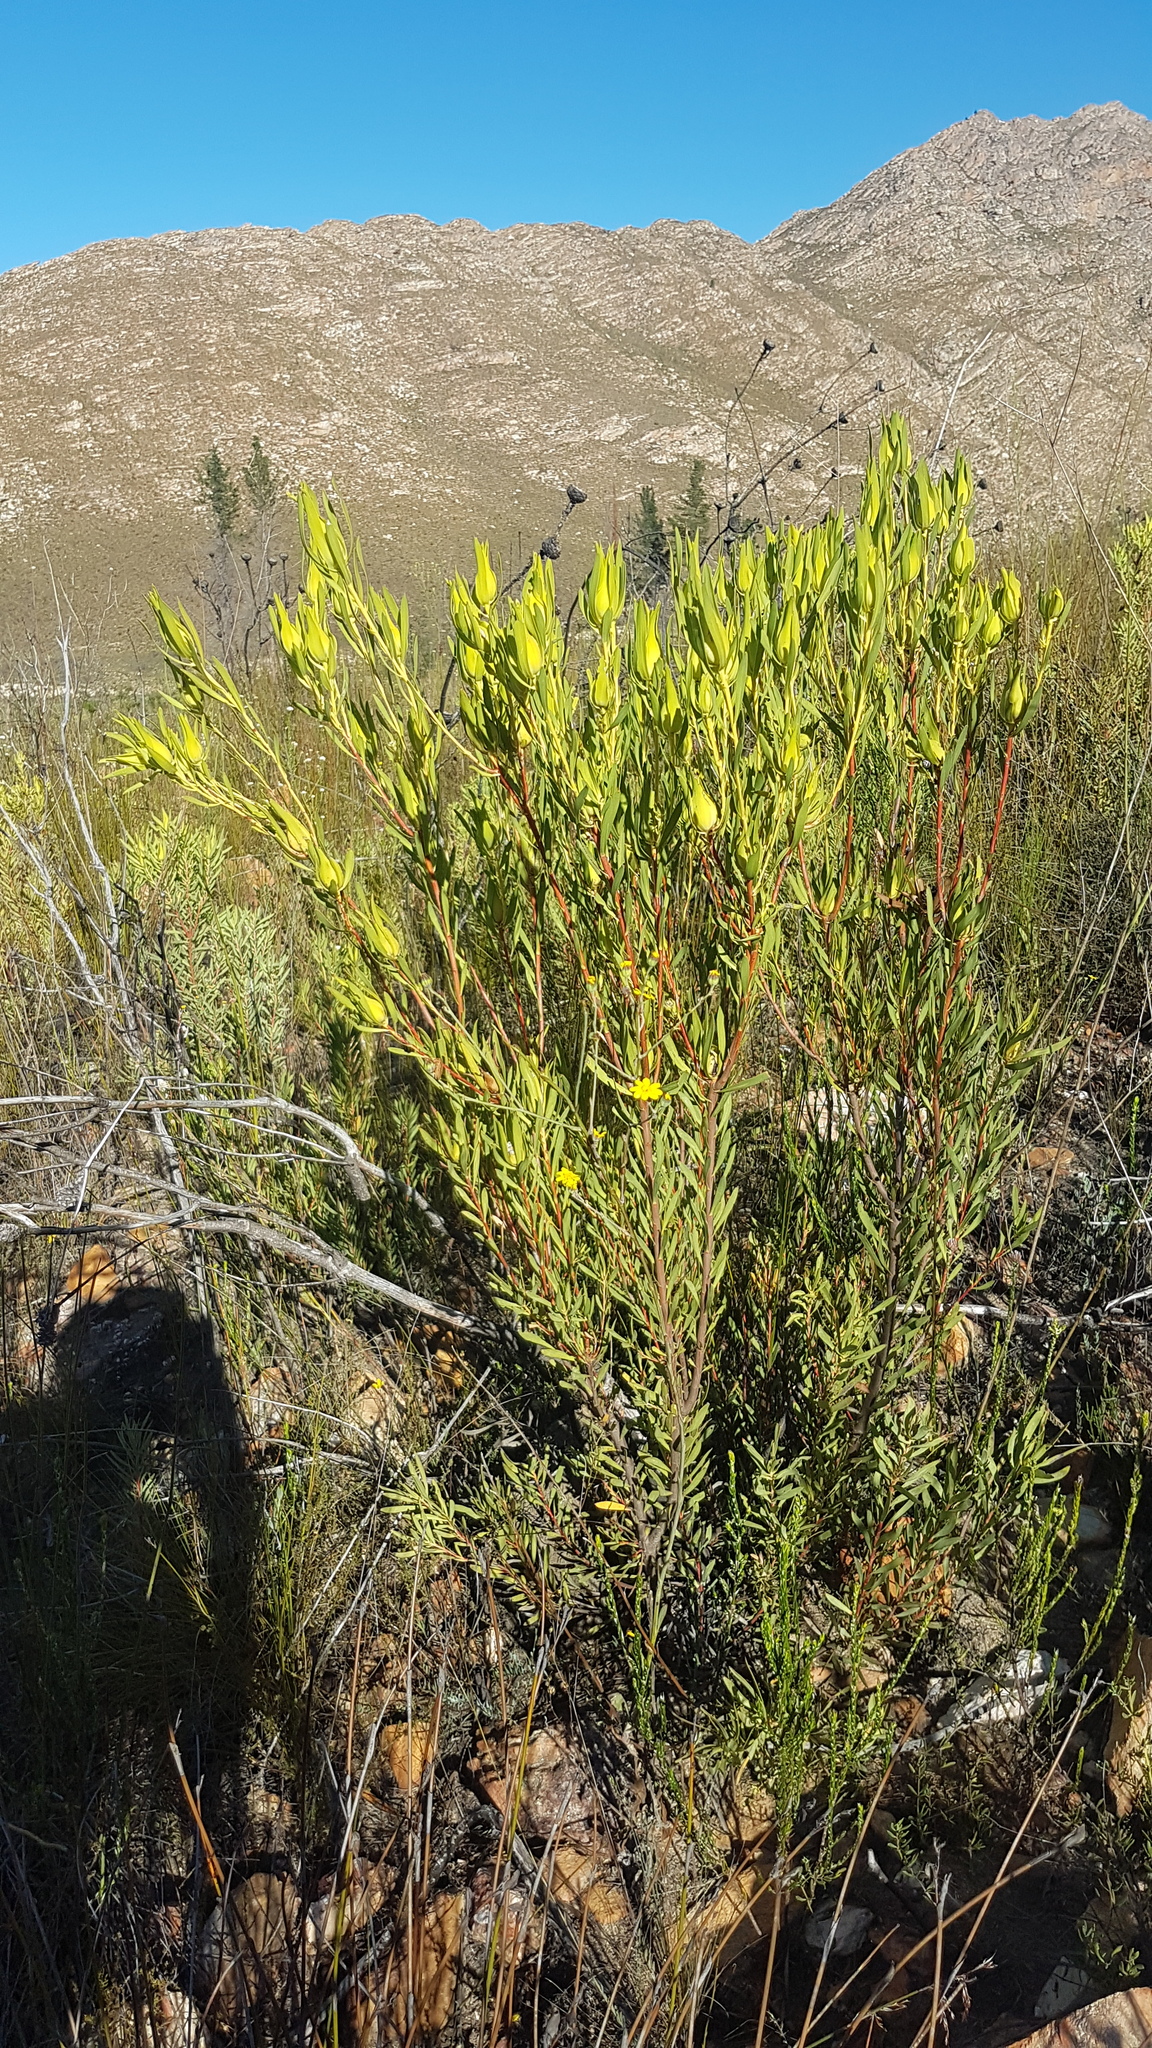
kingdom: Plantae
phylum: Tracheophyta
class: Magnoliopsida
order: Proteales
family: Proteaceae
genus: Leucadendron
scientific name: Leucadendron salignum
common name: Common sunshine conebush
